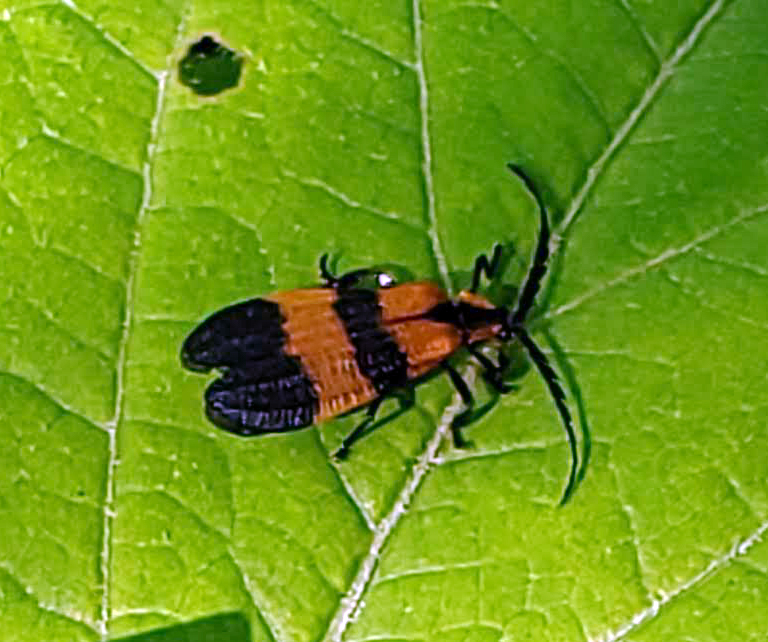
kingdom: Animalia
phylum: Arthropoda
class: Insecta
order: Coleoptera
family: Lycidae
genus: Calopteron
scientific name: Calopteron reticulatum
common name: Banded net-winged beetle
